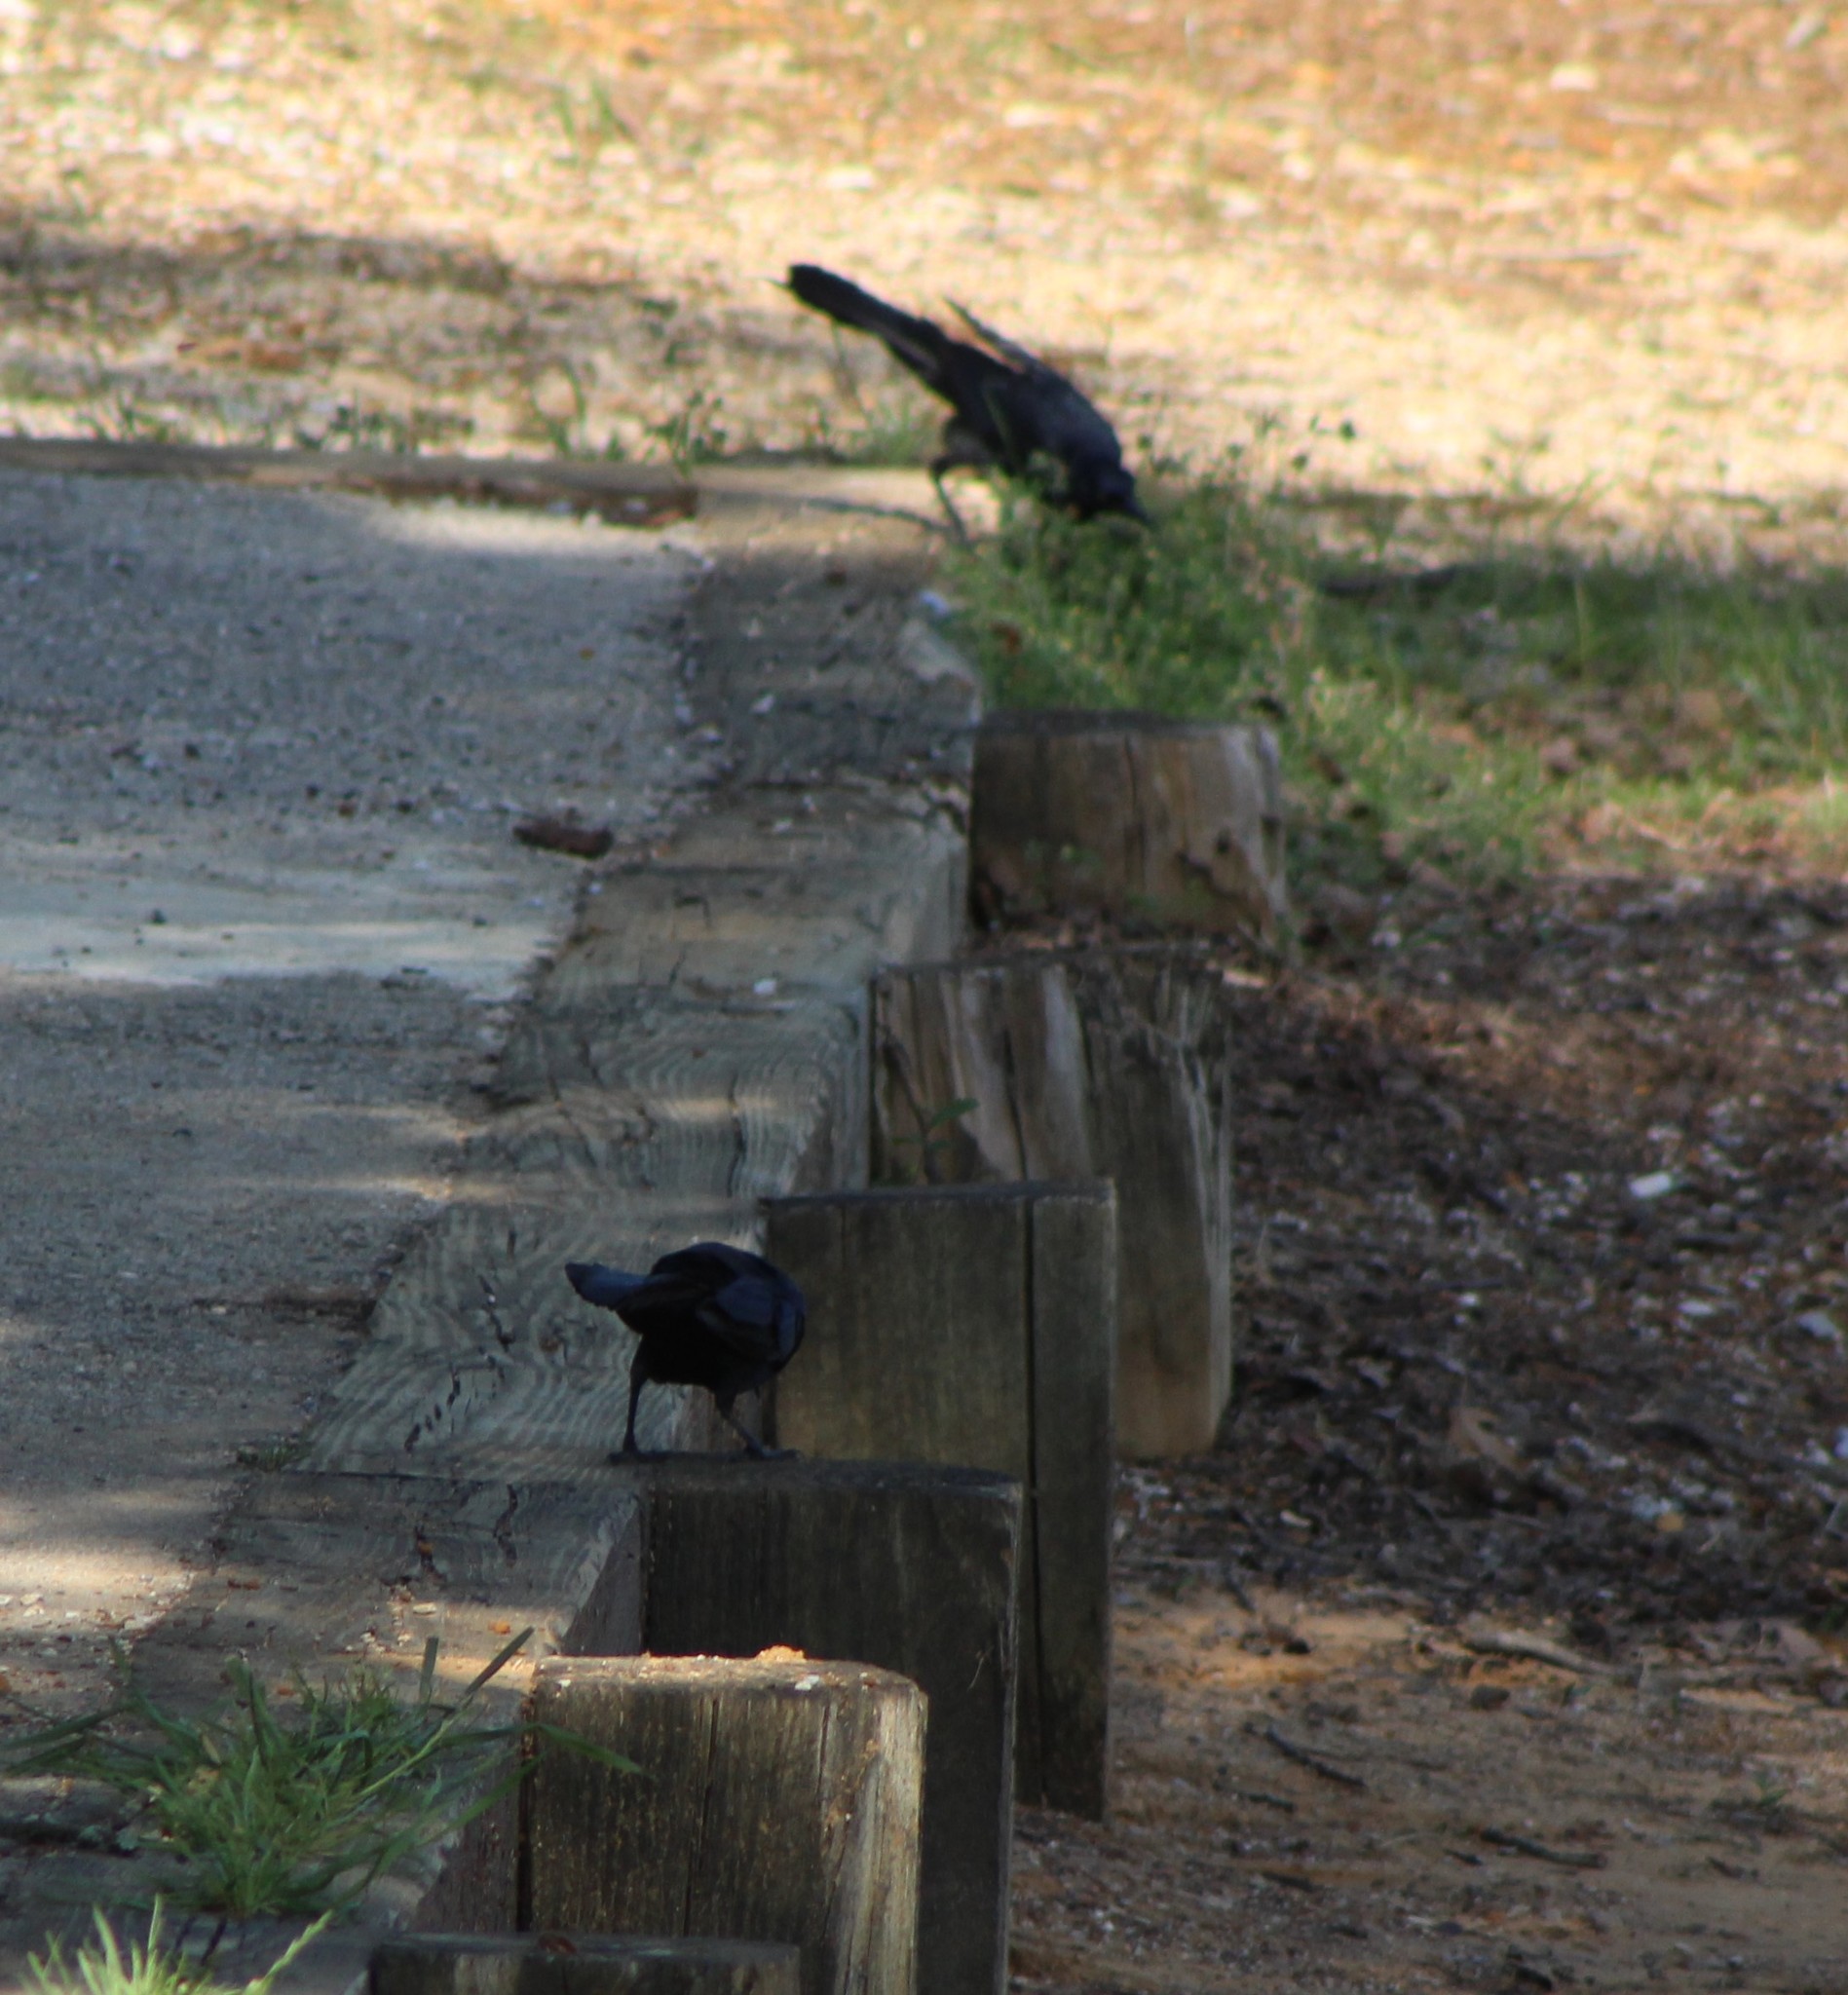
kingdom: Animalia
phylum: Chordata
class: Aves
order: Passeriformes
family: Icteridae
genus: Quiscalus
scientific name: Quiscalus mexicanus
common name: Great-tailed grackle
